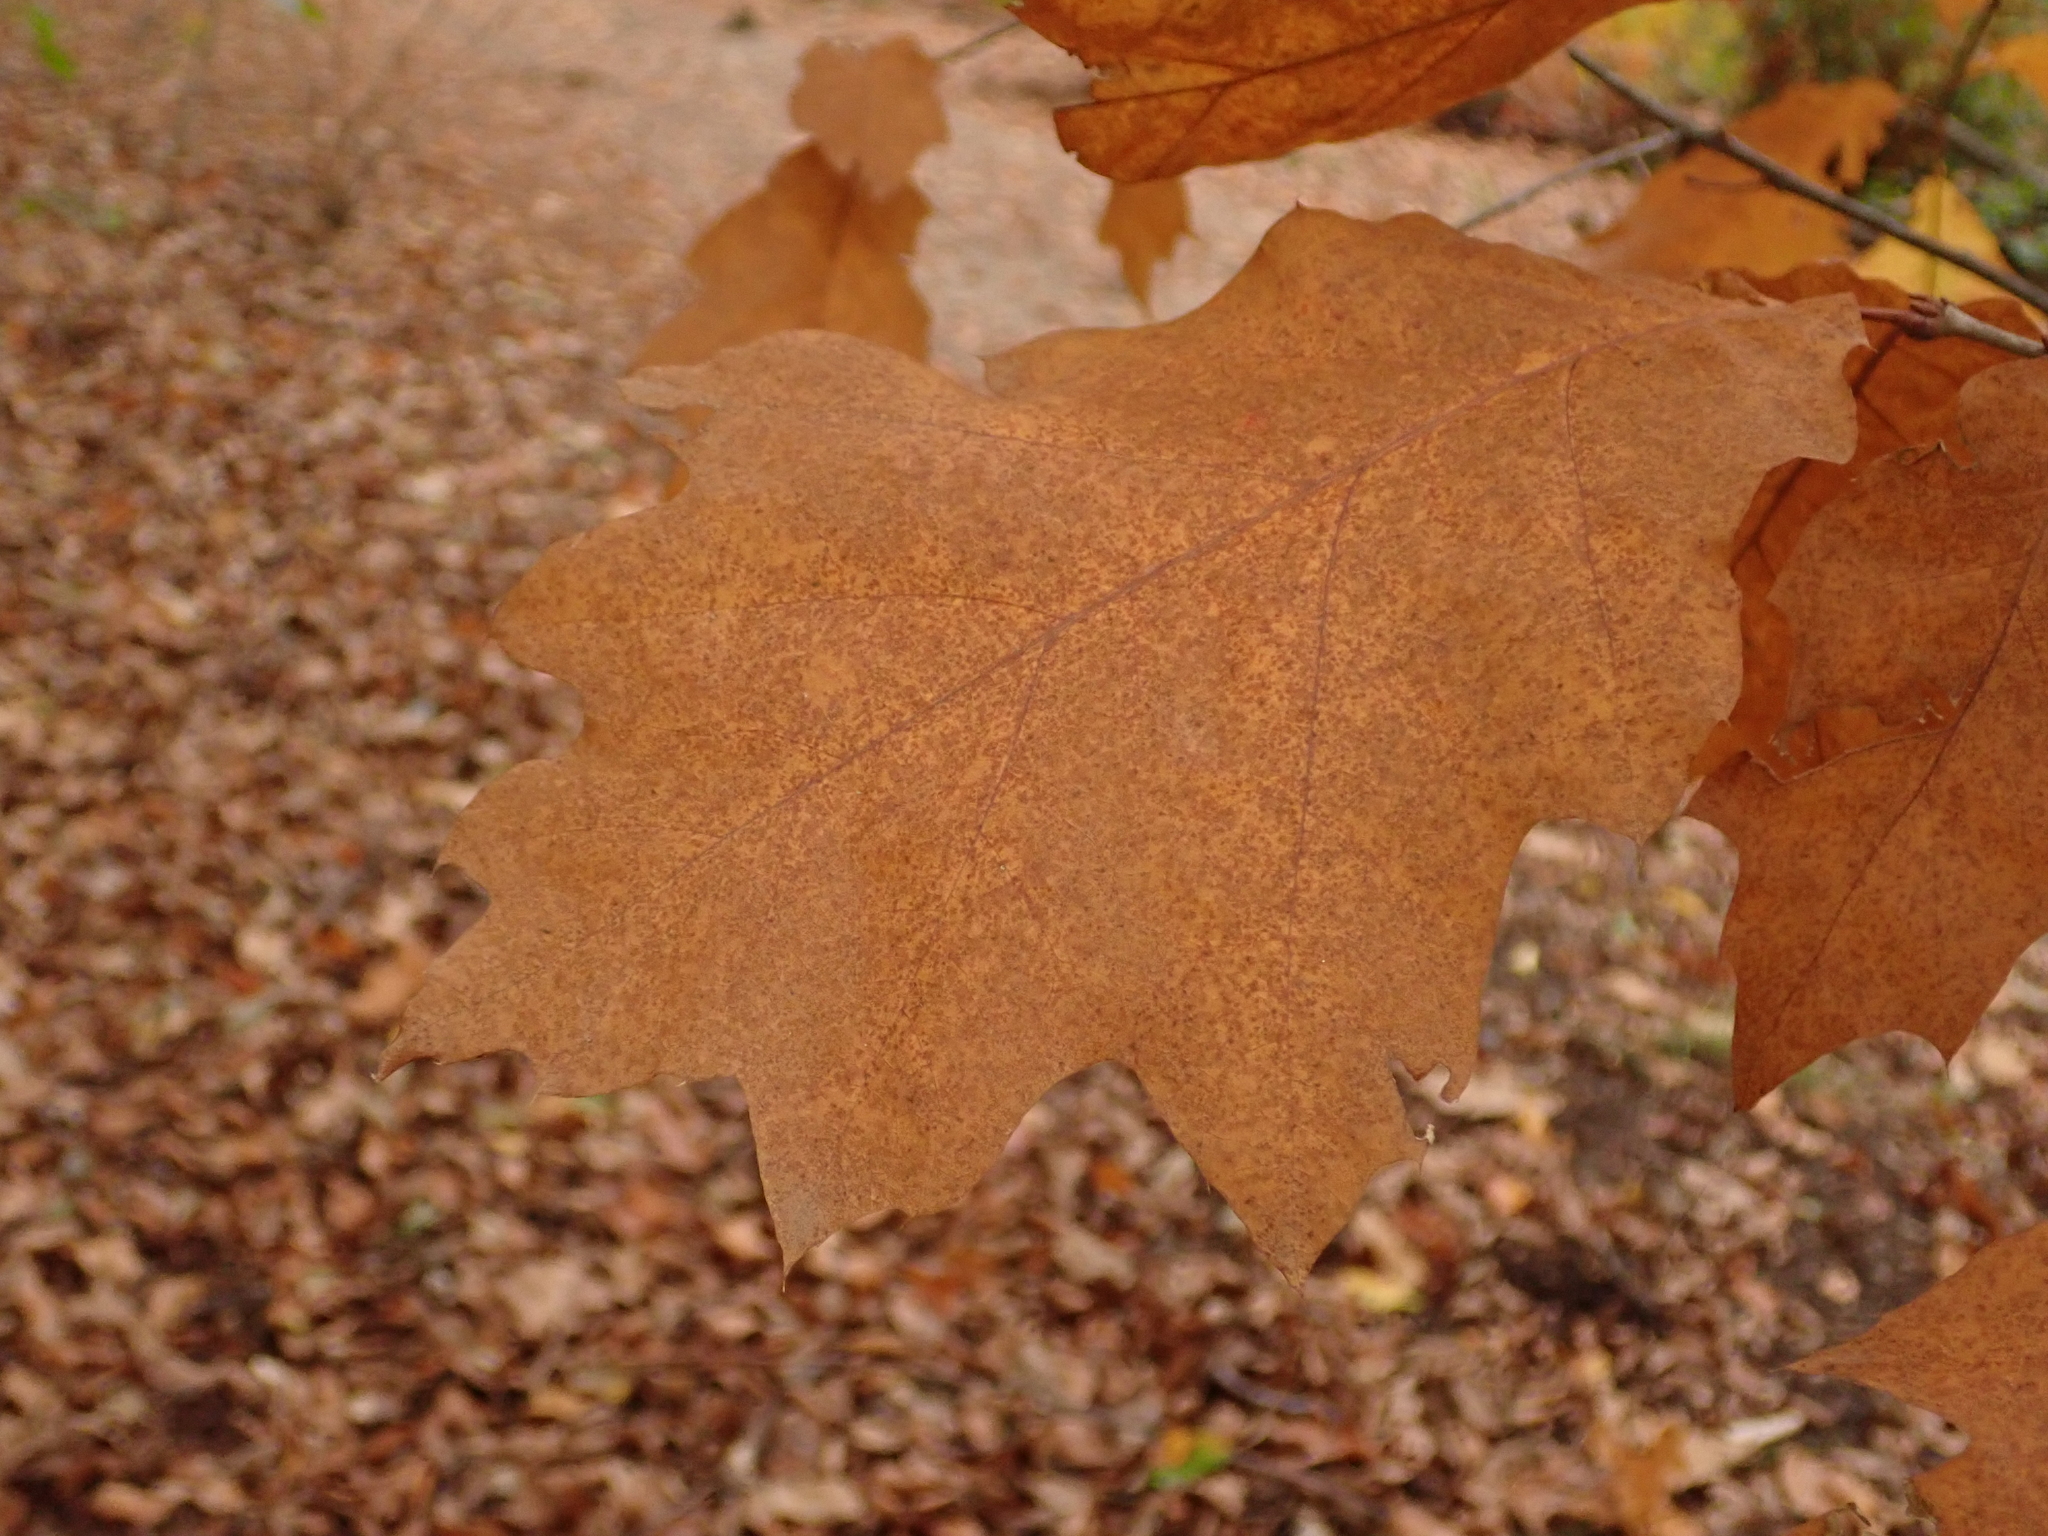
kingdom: Plantae
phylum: Tracheophyta
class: Magnoliopsida
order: Fagales
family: Fagaceae
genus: Quercus
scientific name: Quercus rubra
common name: Red oak
